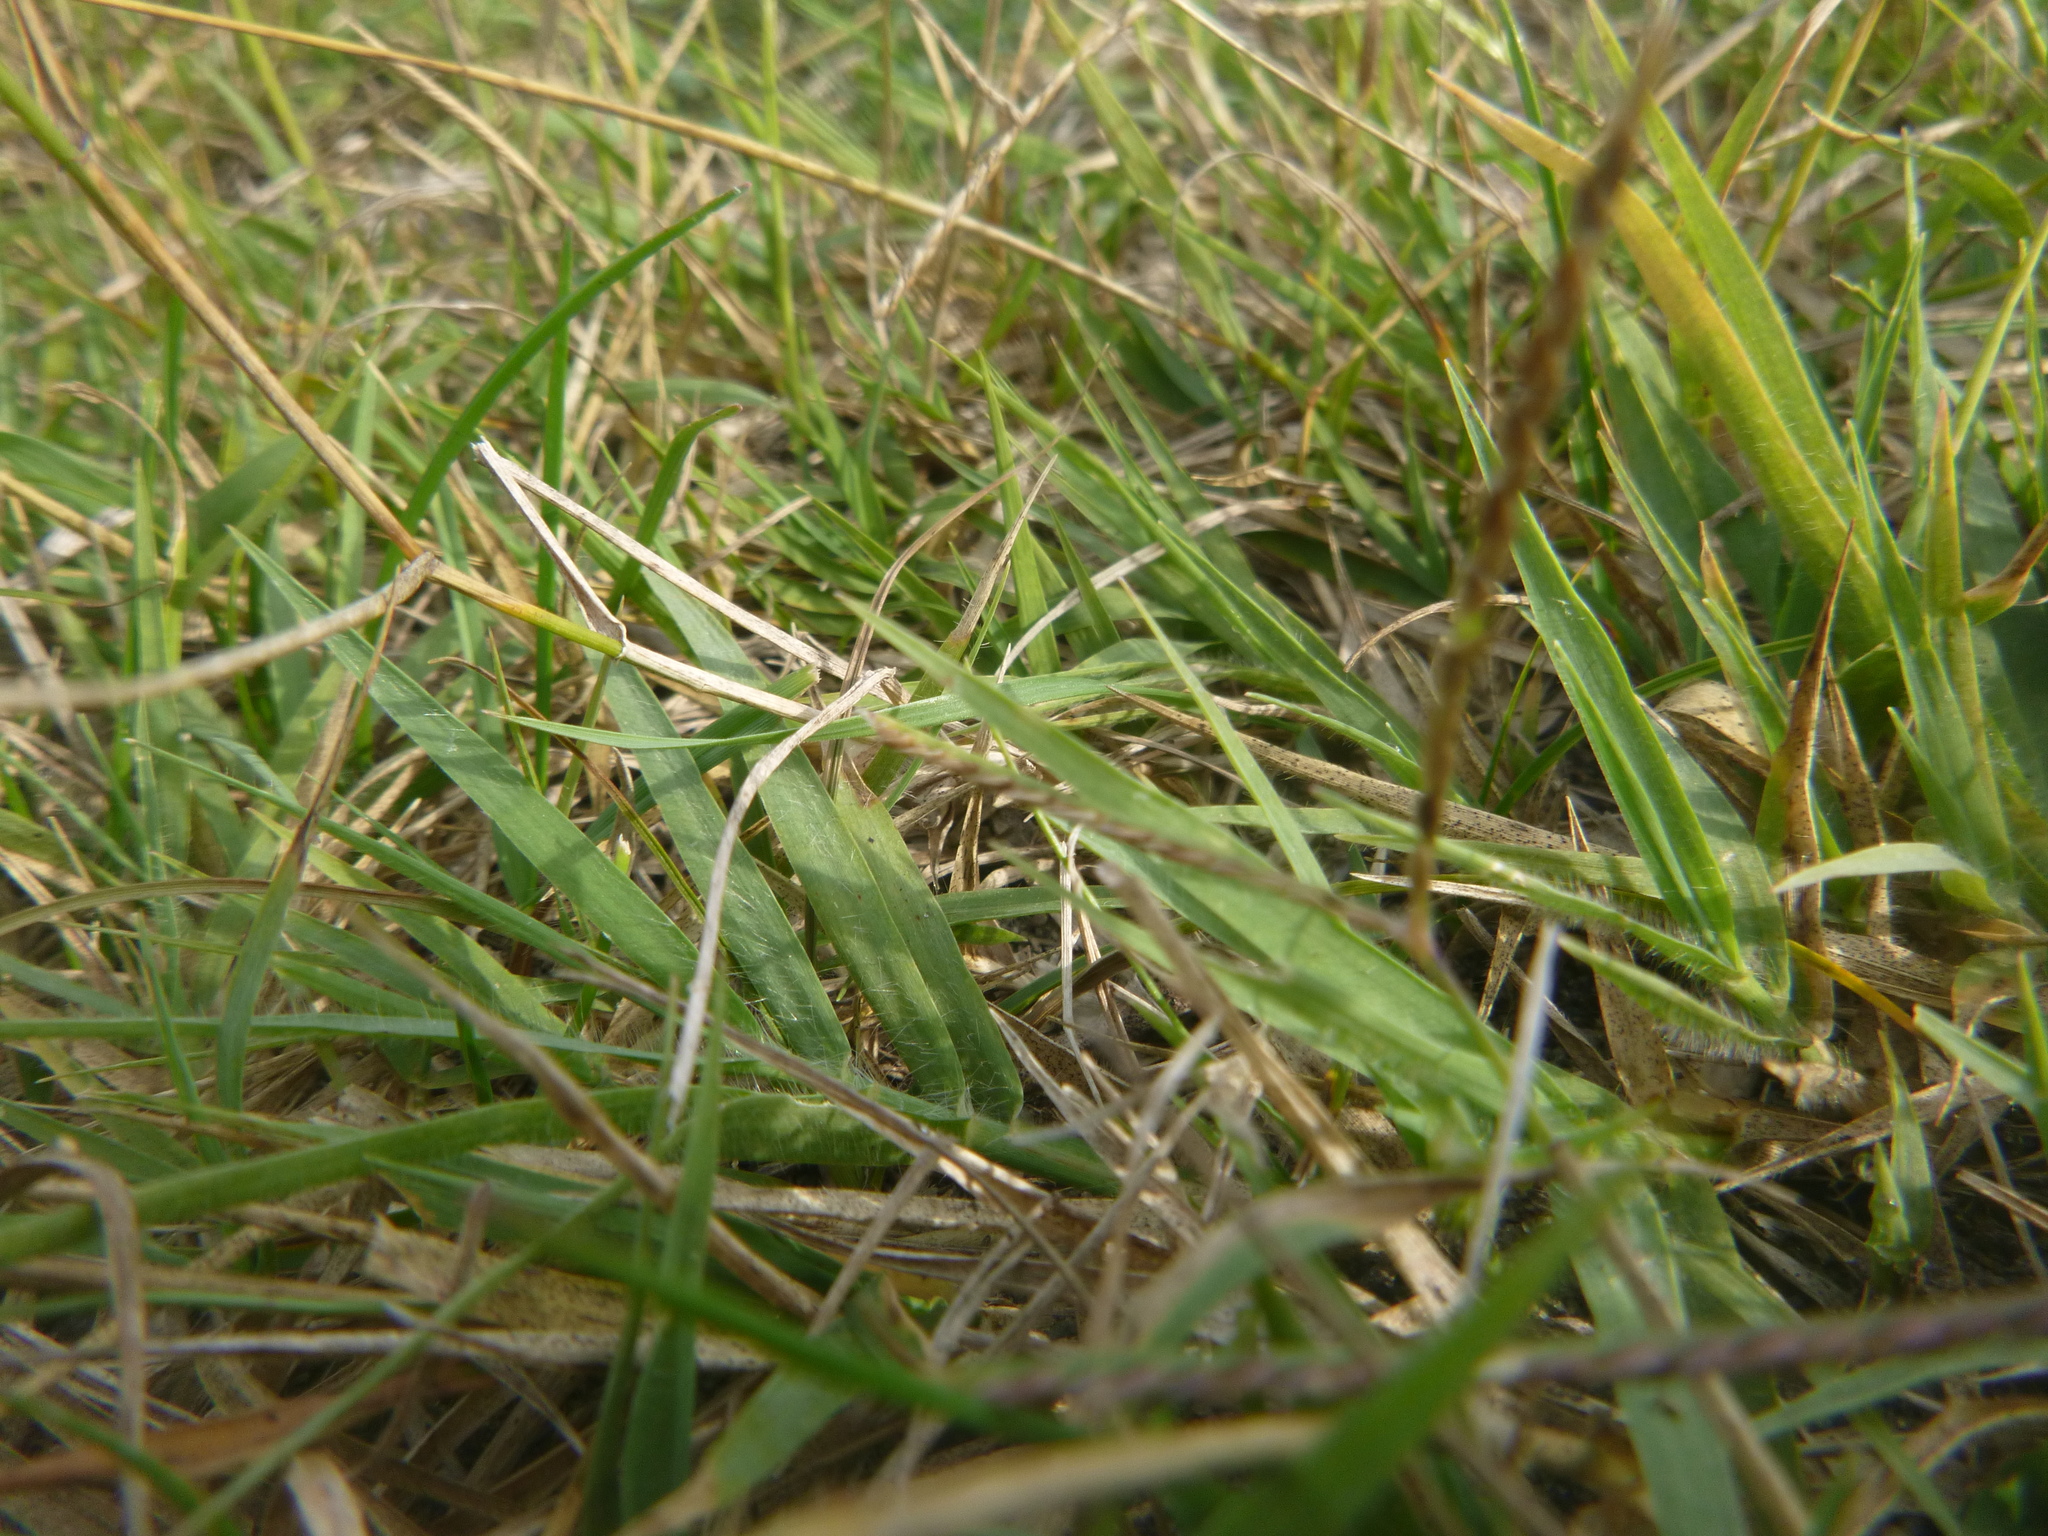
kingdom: Plantae
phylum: Tracheophyta
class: Liliopsida
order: Poales
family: Poaceae
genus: Cynodon
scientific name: Cynodon dactylon
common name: Bermuda grass
